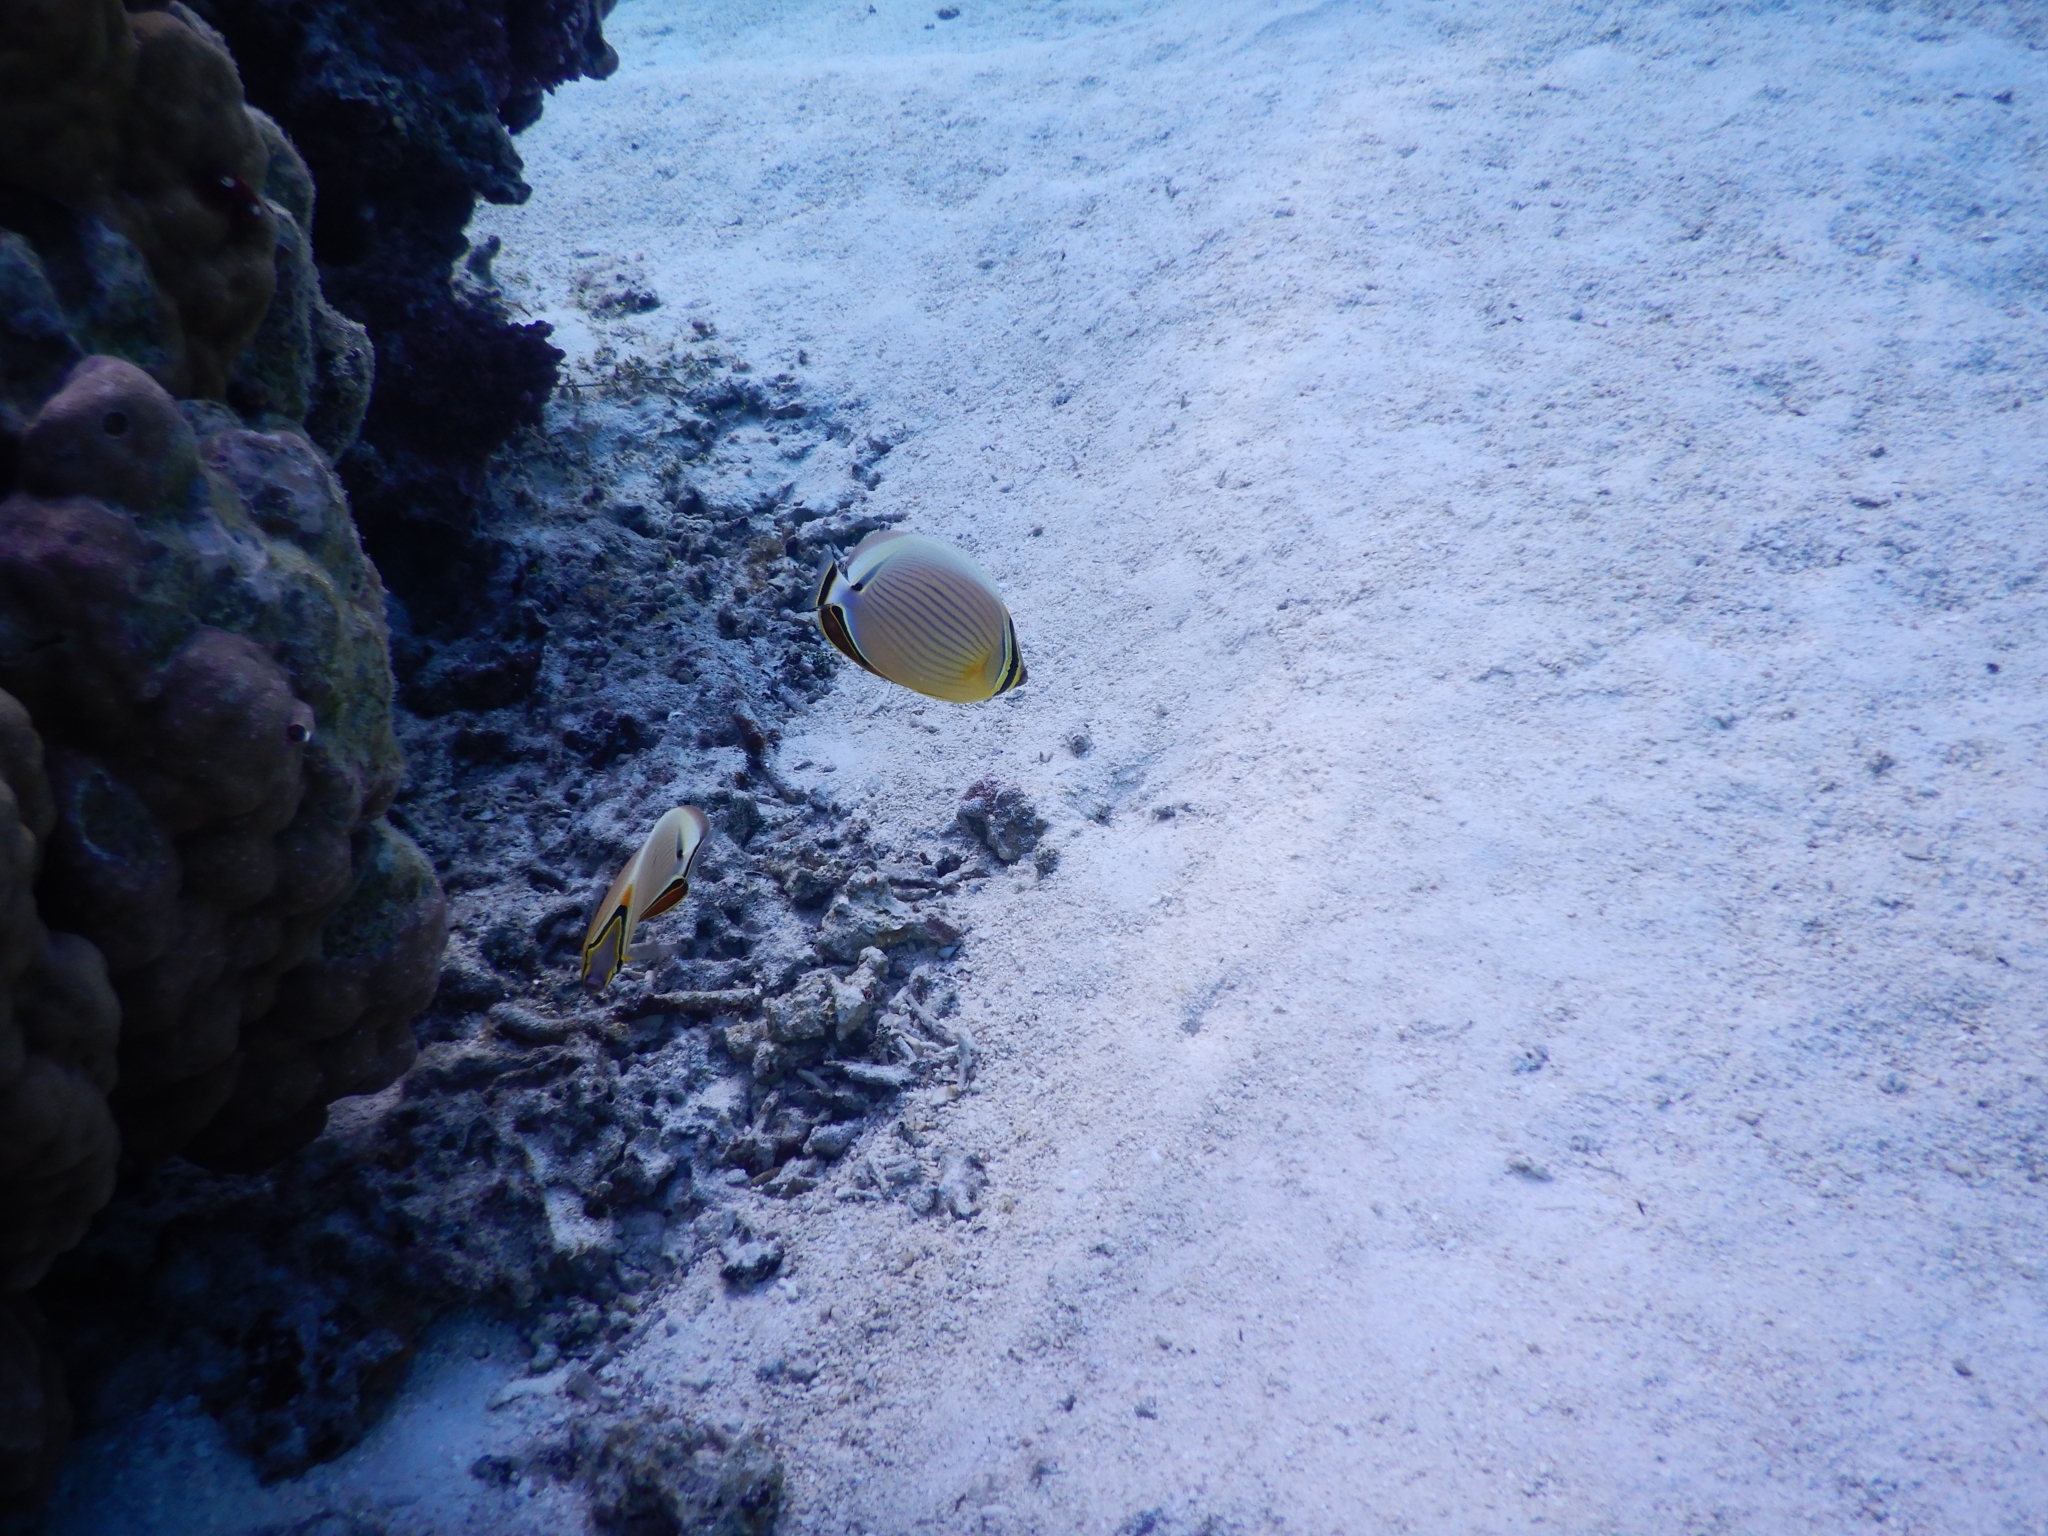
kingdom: Animalia
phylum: Chordata
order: Perciformes
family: Chaetodontidae
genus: Chaetodon
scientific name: Chaetodon lunulatus
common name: Redfin butterflyfish
